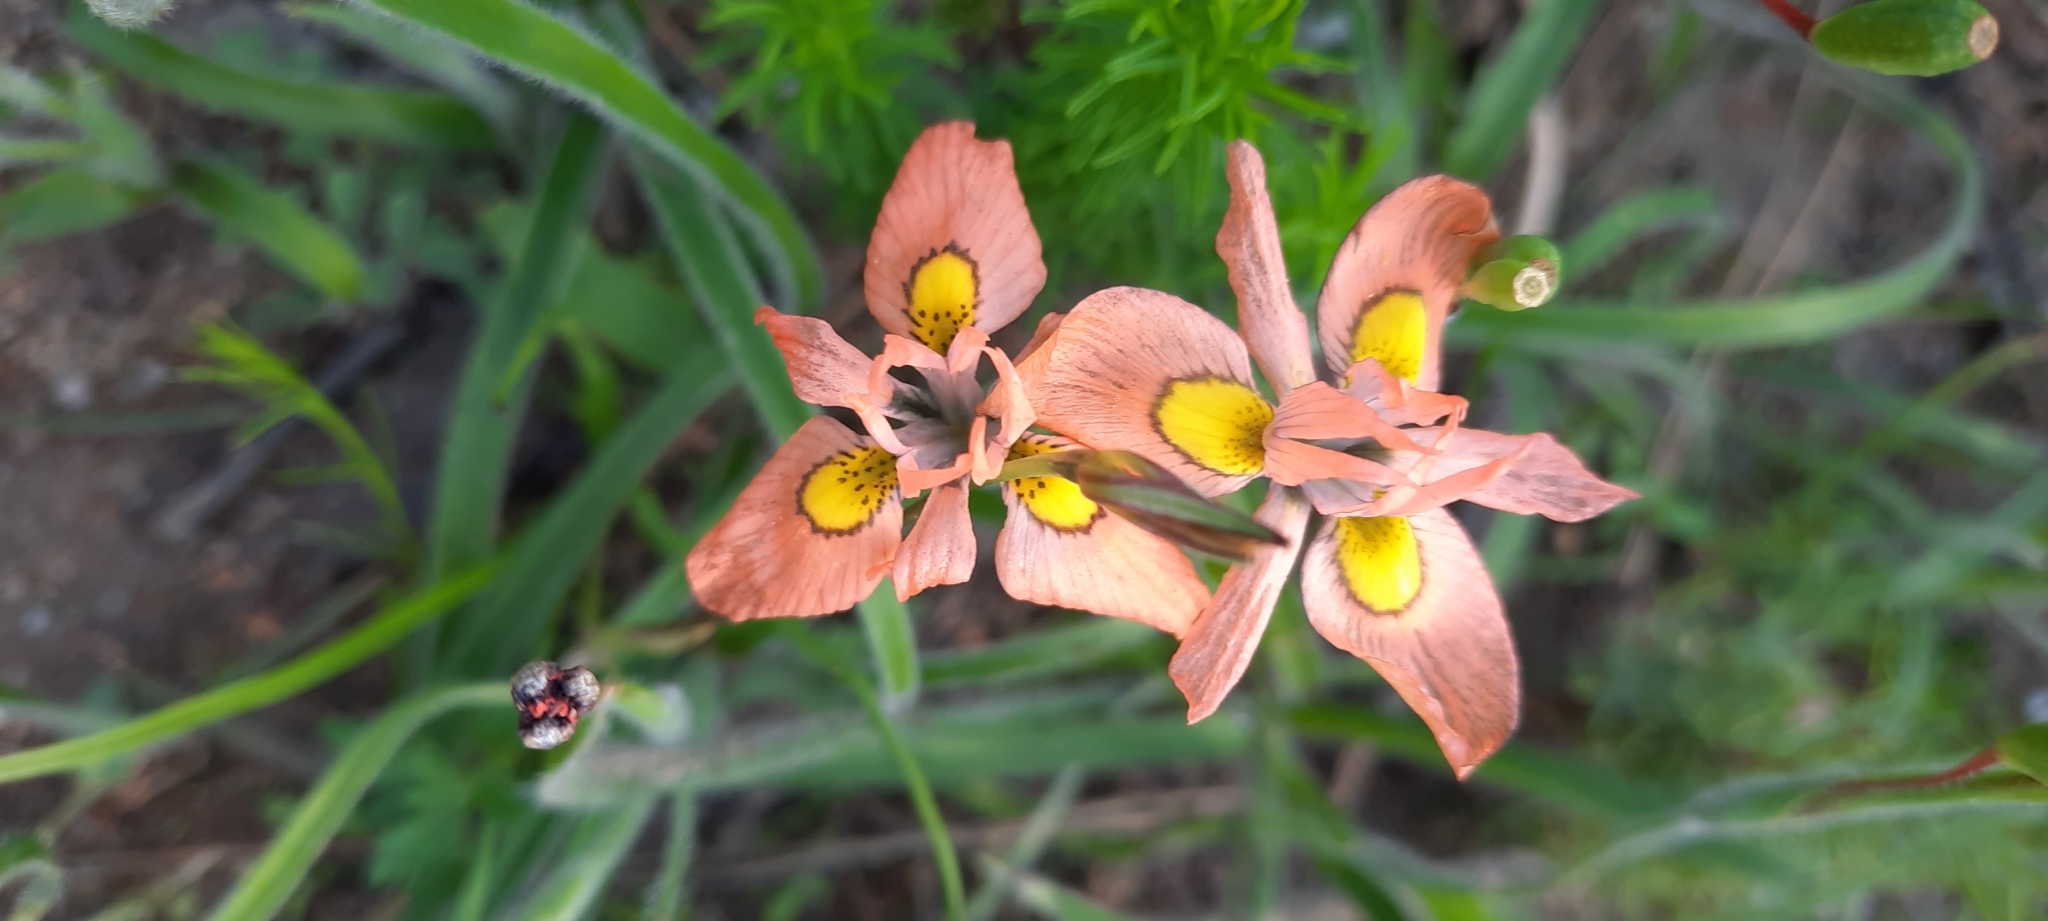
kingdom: Plantae
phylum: Tracheophyta
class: Liliopsida
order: Asparagales
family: Iridaceae
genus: Moraea
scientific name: Moraea papilionacea
